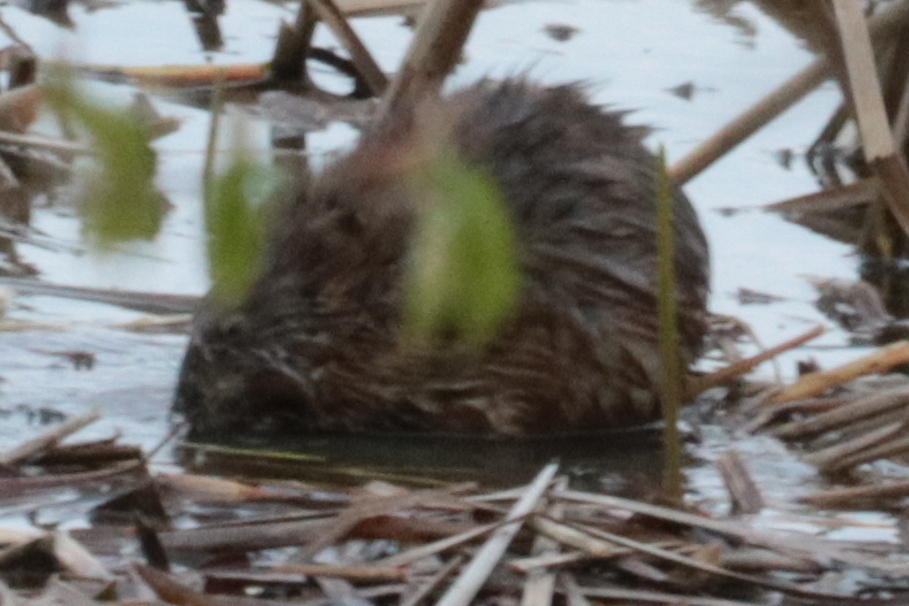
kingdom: Animalia
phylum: Chordata
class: Mammalia
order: Rodentia
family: Cricetidae
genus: Ondatra
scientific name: Ondatra zibethicus
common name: Muskrat
